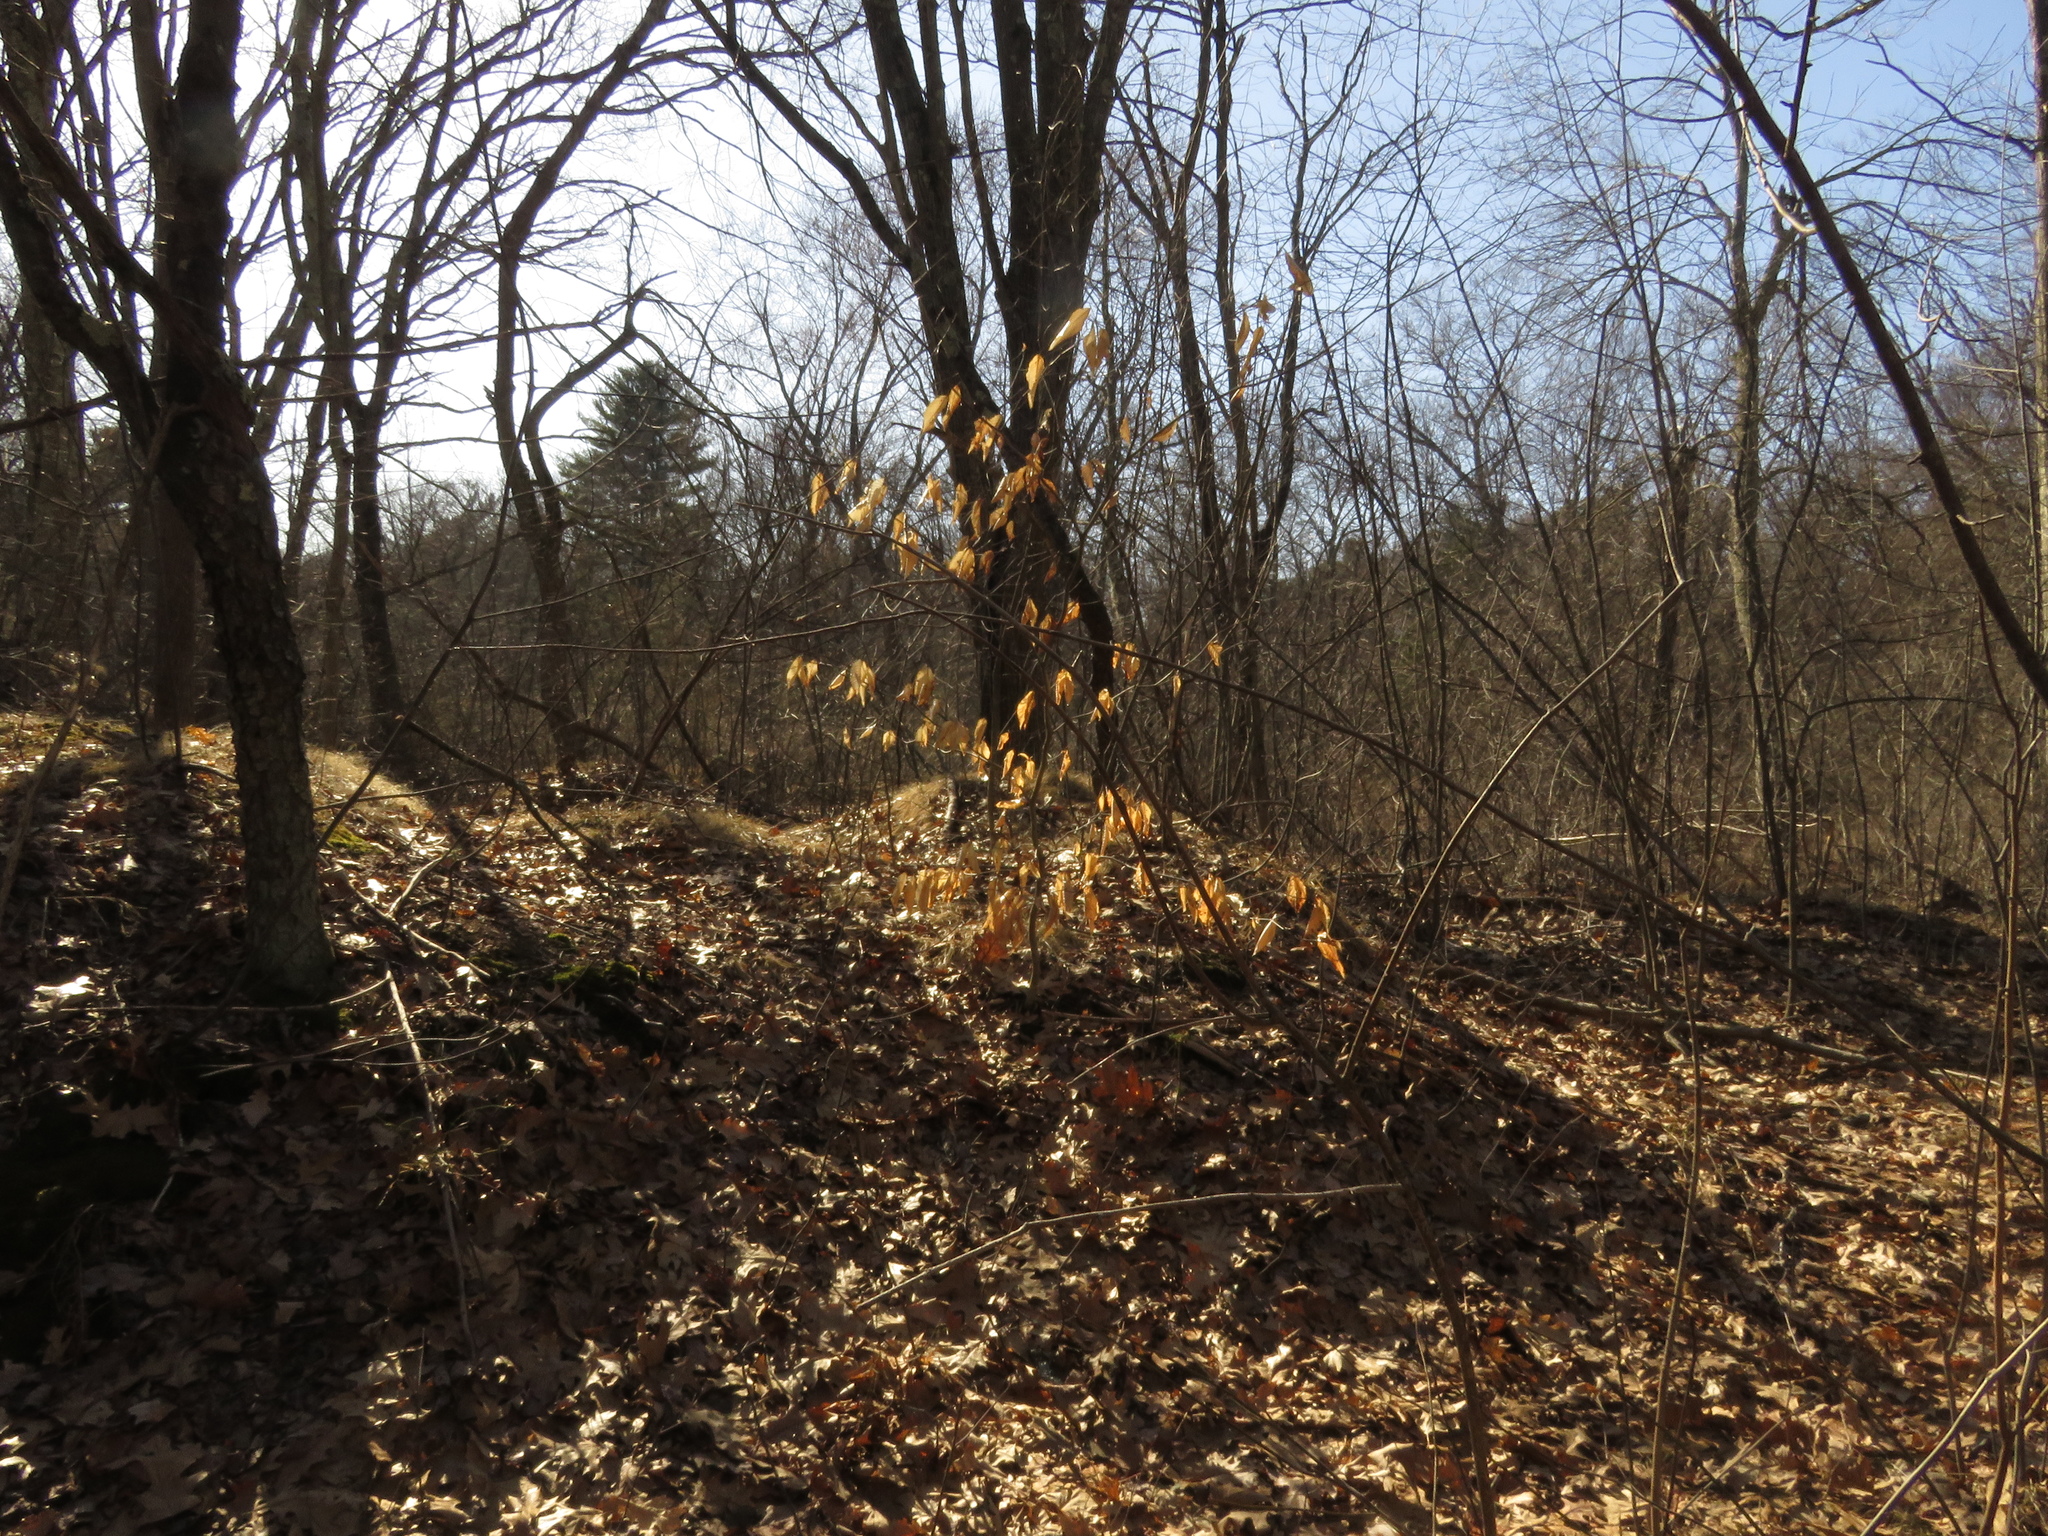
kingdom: Plantae
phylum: Tracheophyta
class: Magnoliopsida
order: Fagales
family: Fagaceae
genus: Fagus
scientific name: Fagus grandifolia
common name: American beech
